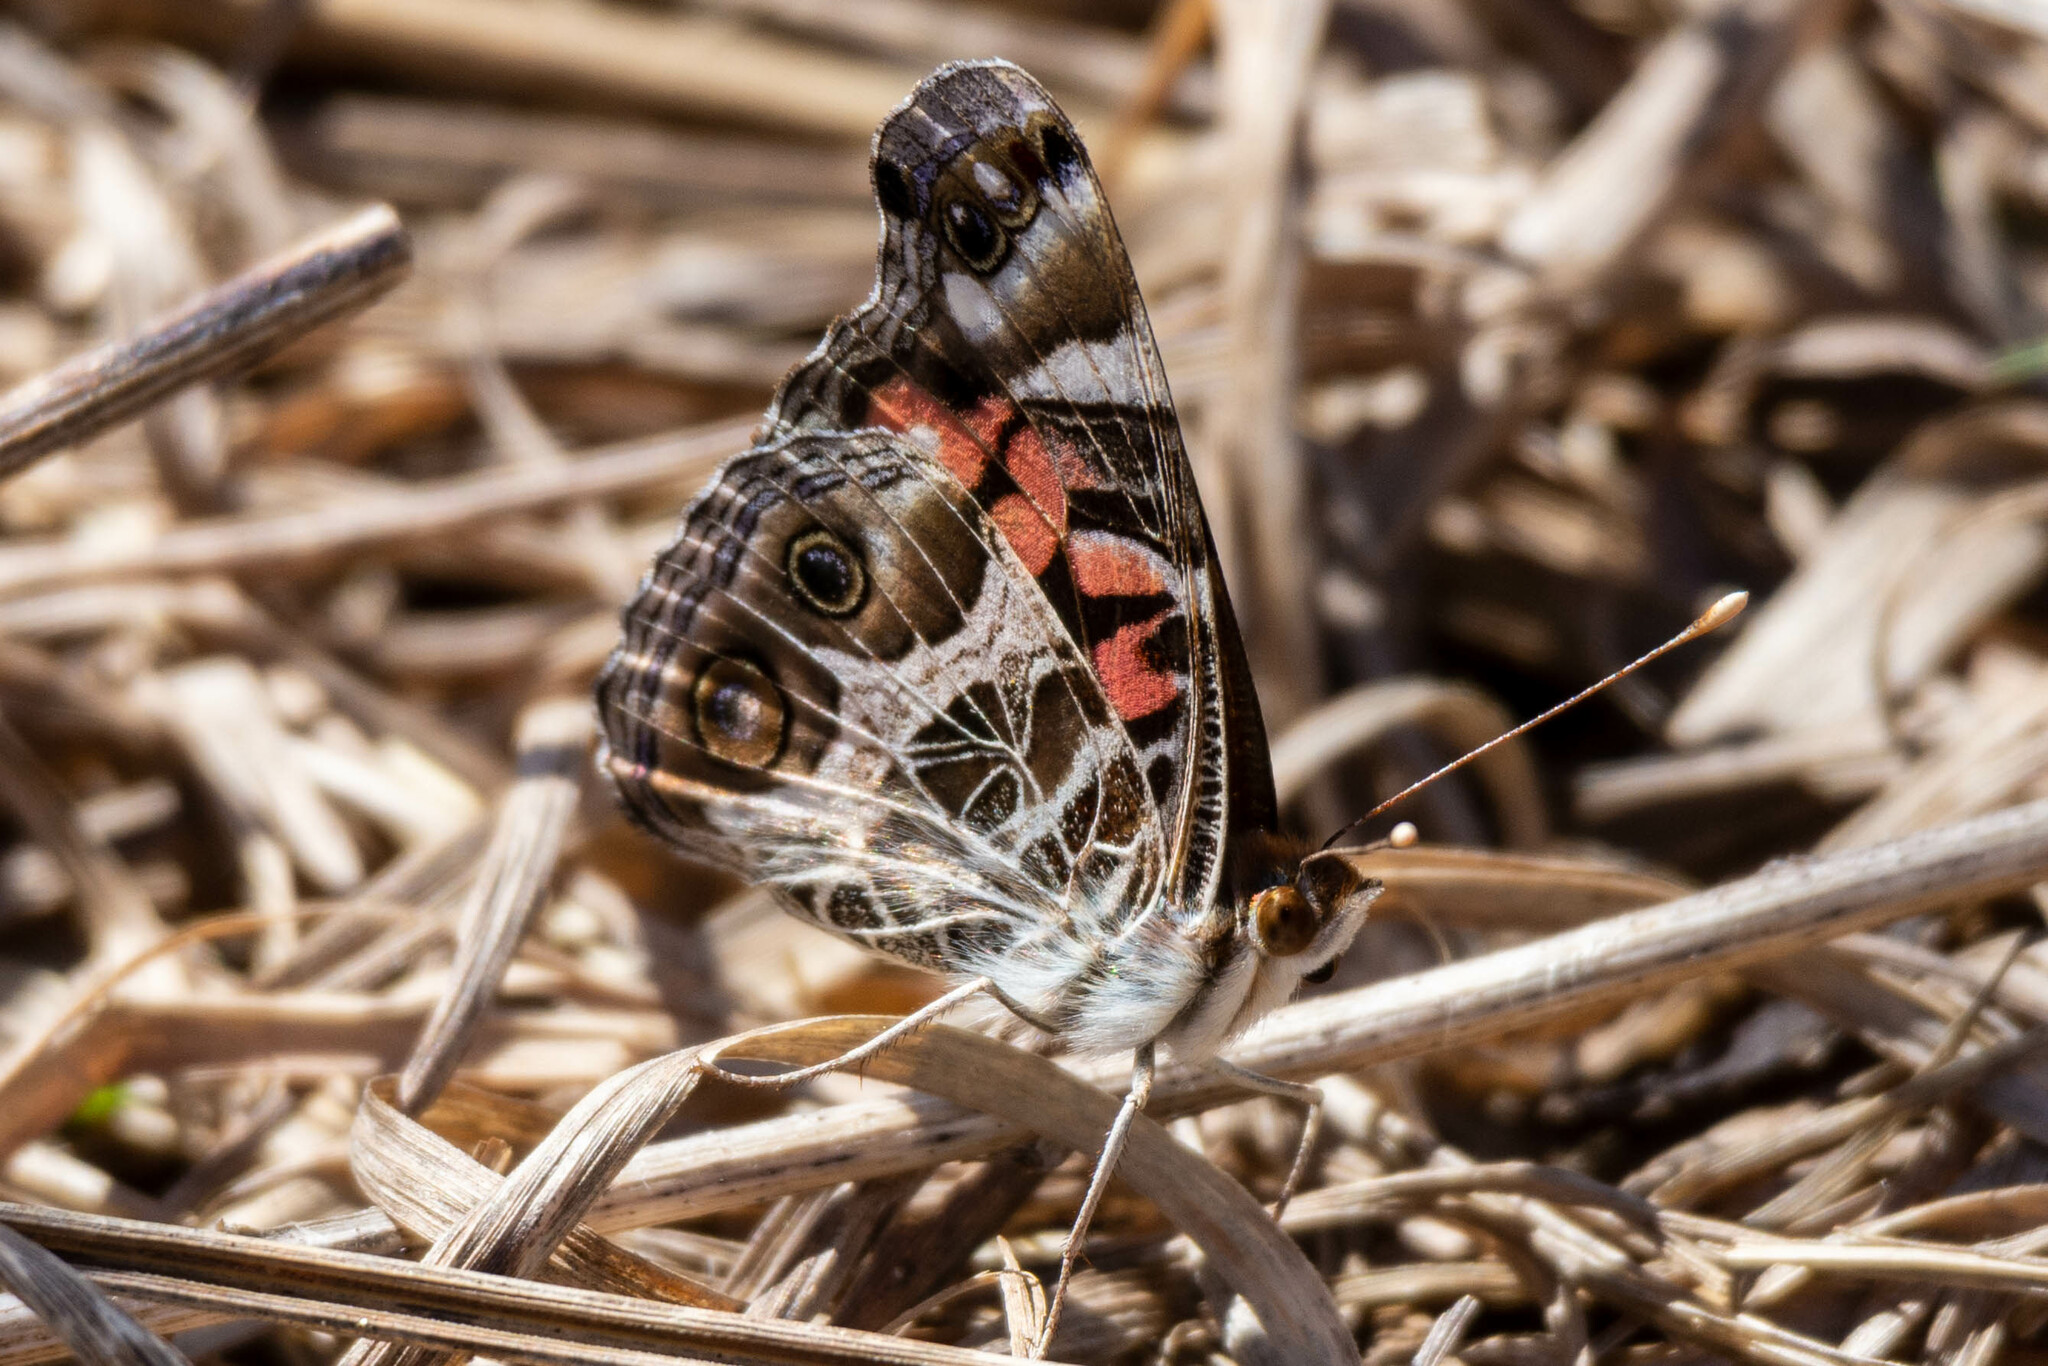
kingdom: Animalia
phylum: Arthropoda
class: Insecta
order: Lepidoptera
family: Nymphalidae
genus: Vanessa
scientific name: Vanessa virginiensis
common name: American lady
